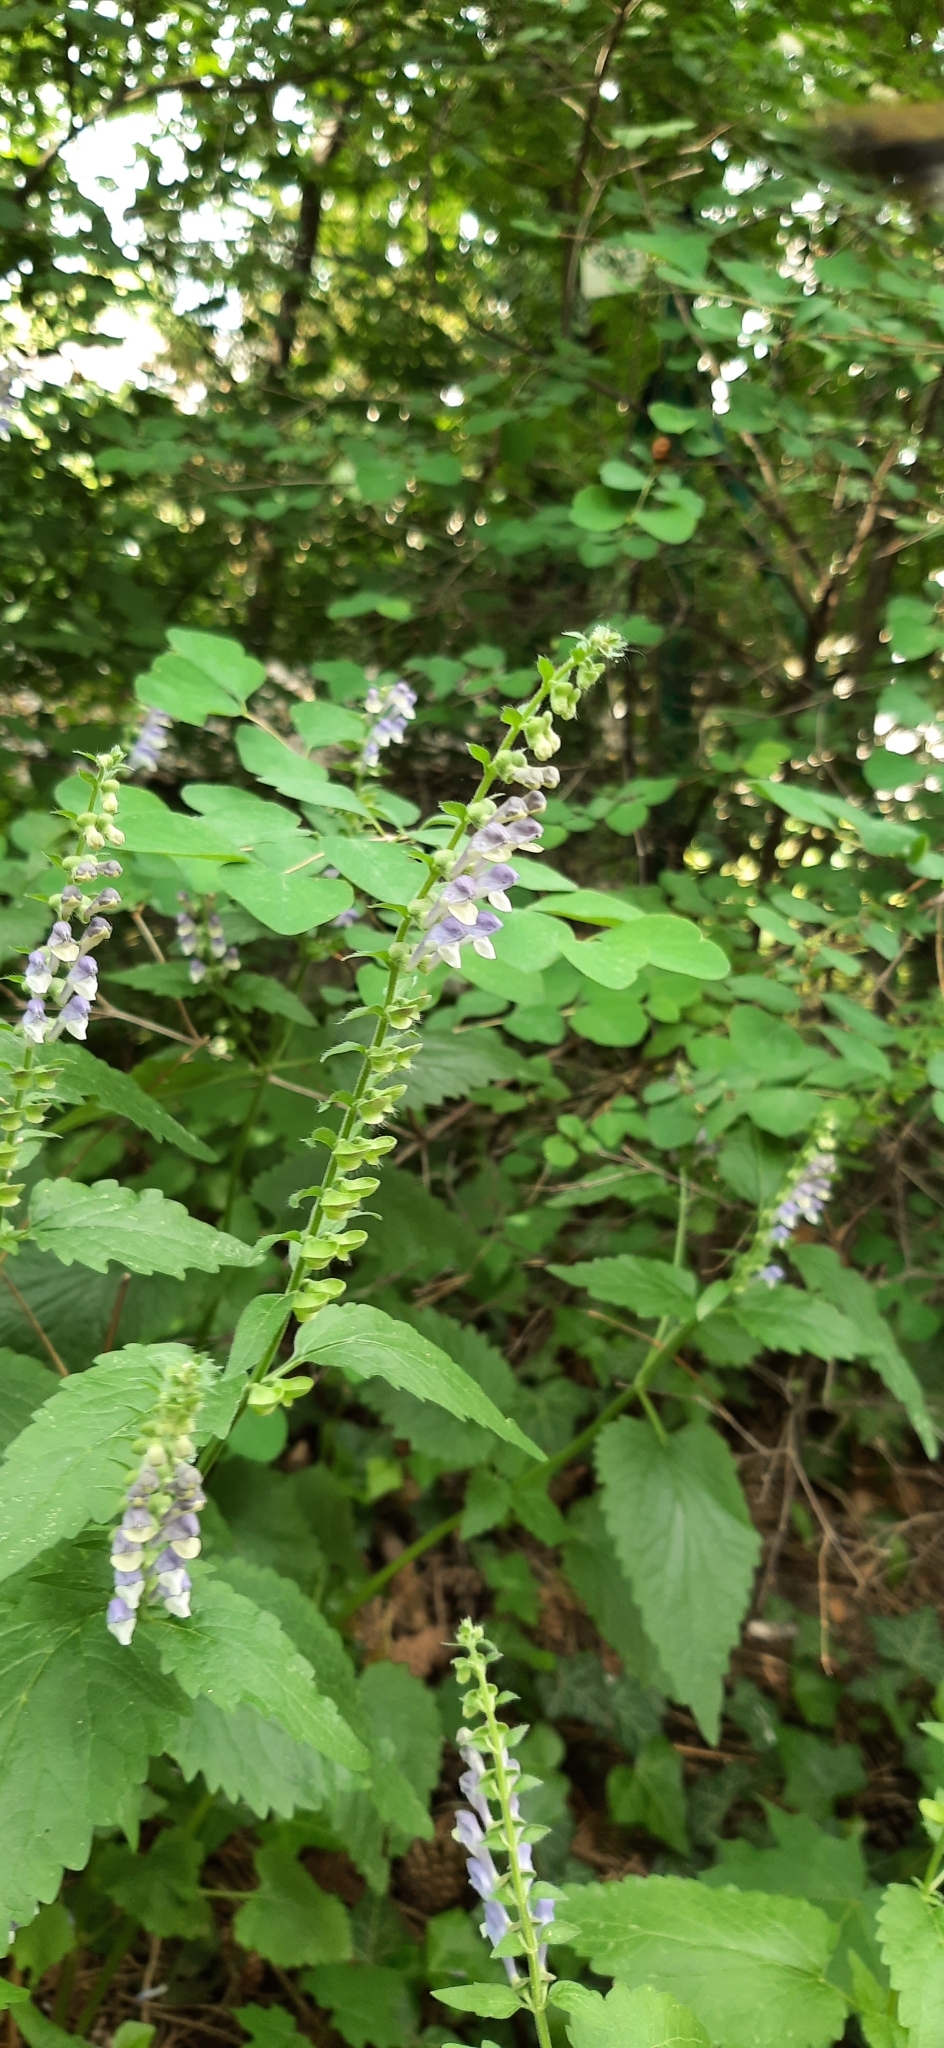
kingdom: Plantae
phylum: Tracheophyta
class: Magnoliopsida
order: Lamiales
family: Lamiaceae
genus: Scutellaria
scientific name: Scutellaria altissima
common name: Somerset skullcap
